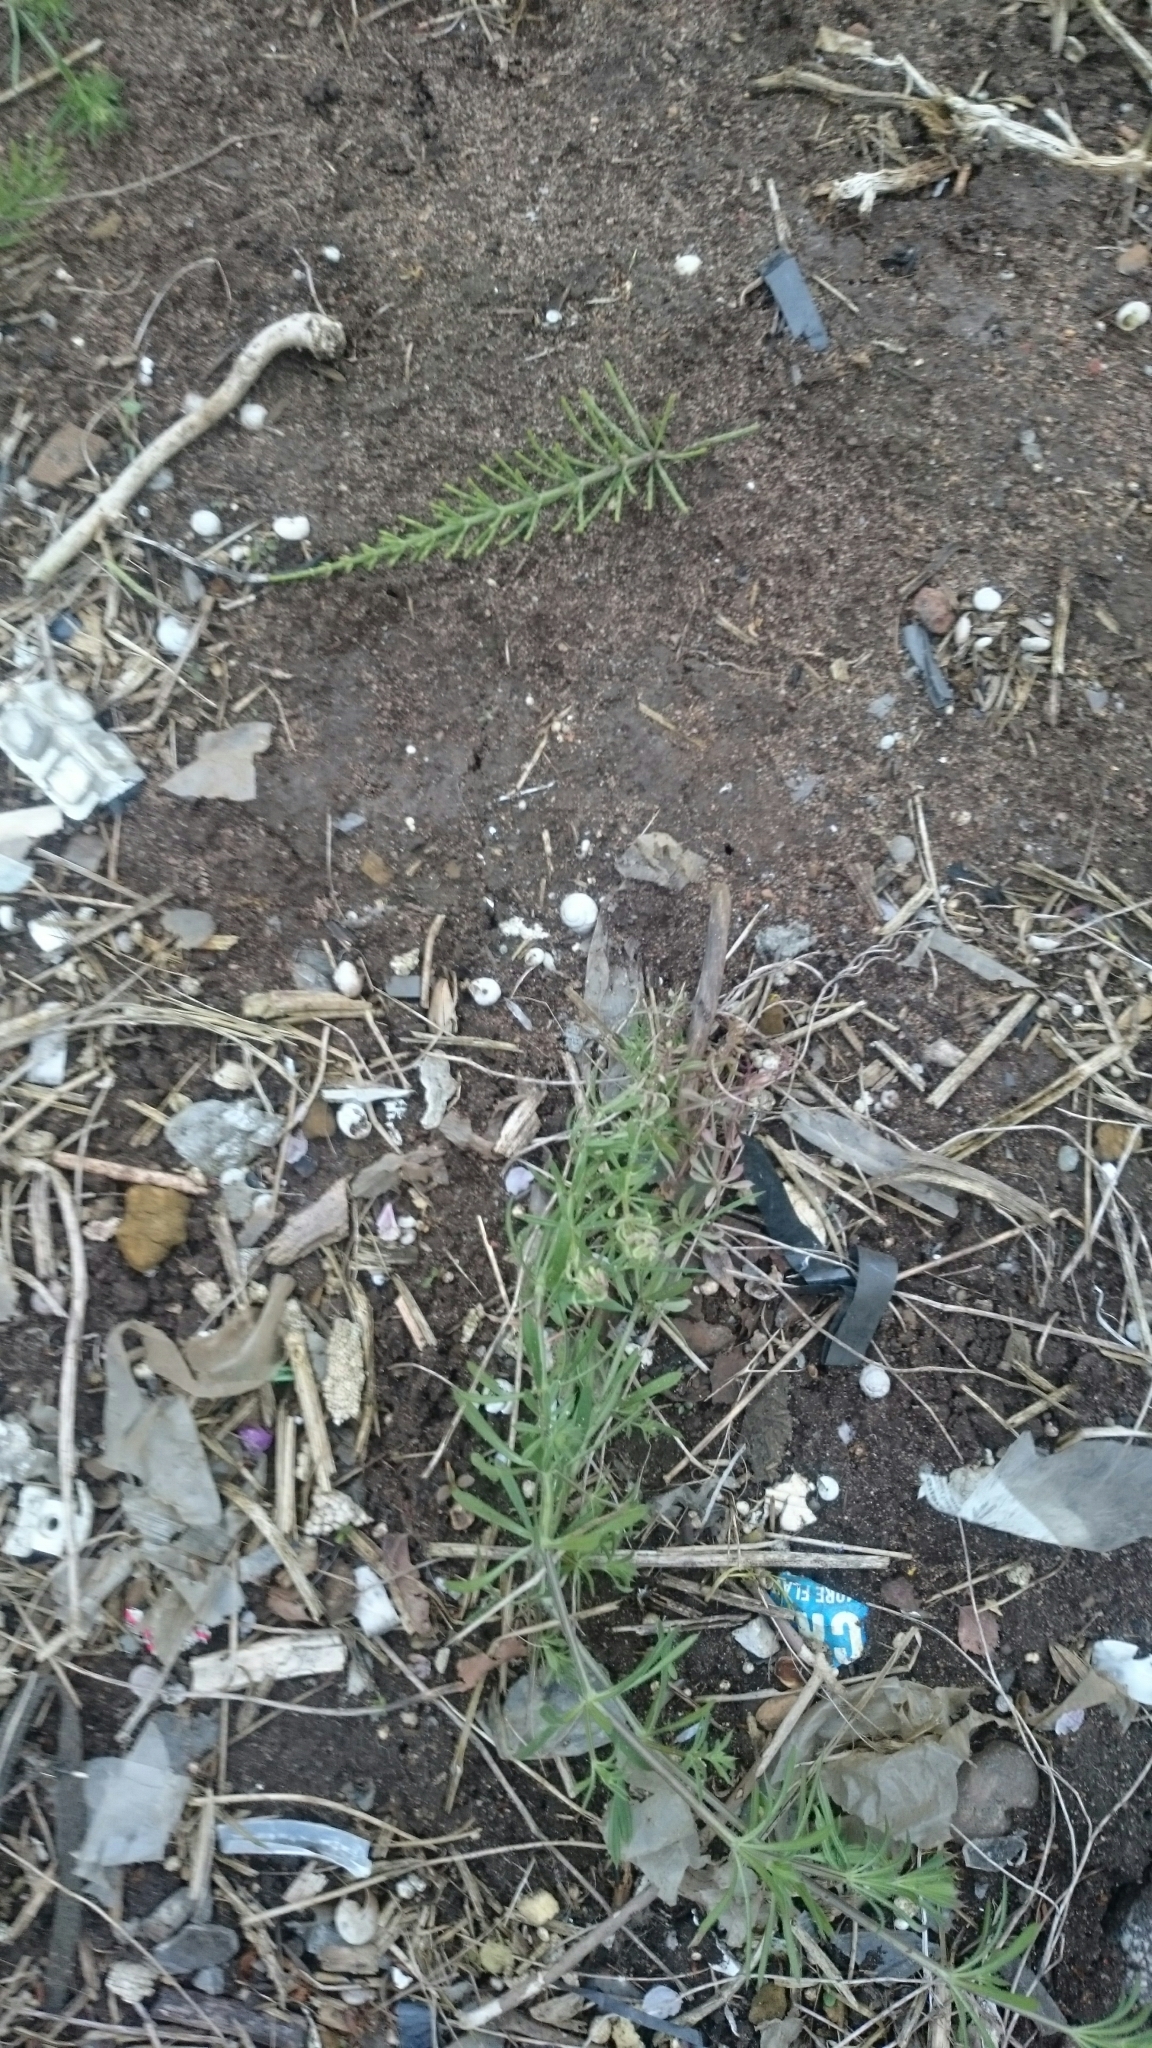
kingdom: Plantae
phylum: Tracheophyta
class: Magnoliopsida
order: Gentianales
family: Rubiaceae
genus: Galium
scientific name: Galium aparine
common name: Cleavers
